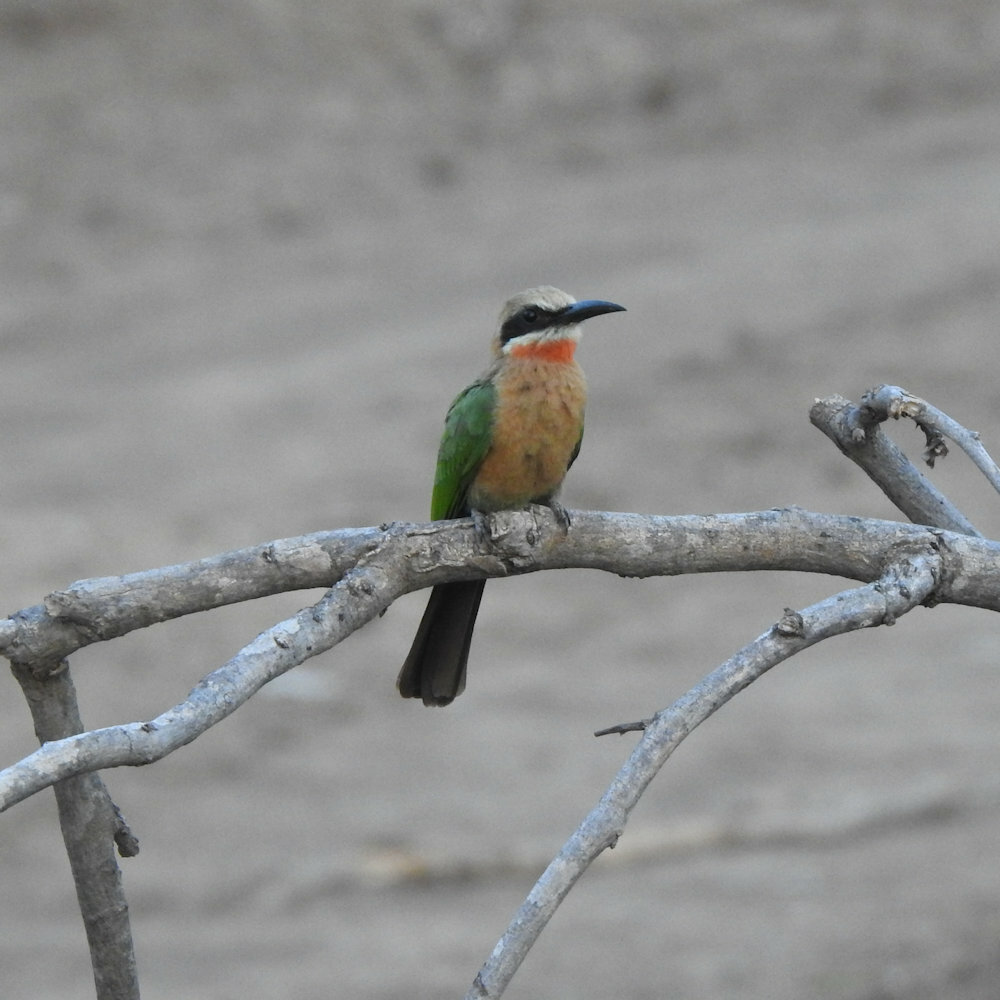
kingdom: Animalia
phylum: Chordata
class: Aves
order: Coraciiformes
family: Meropidae
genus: Merops
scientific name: Merops bullockoides
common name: White-fronted bee-eater
